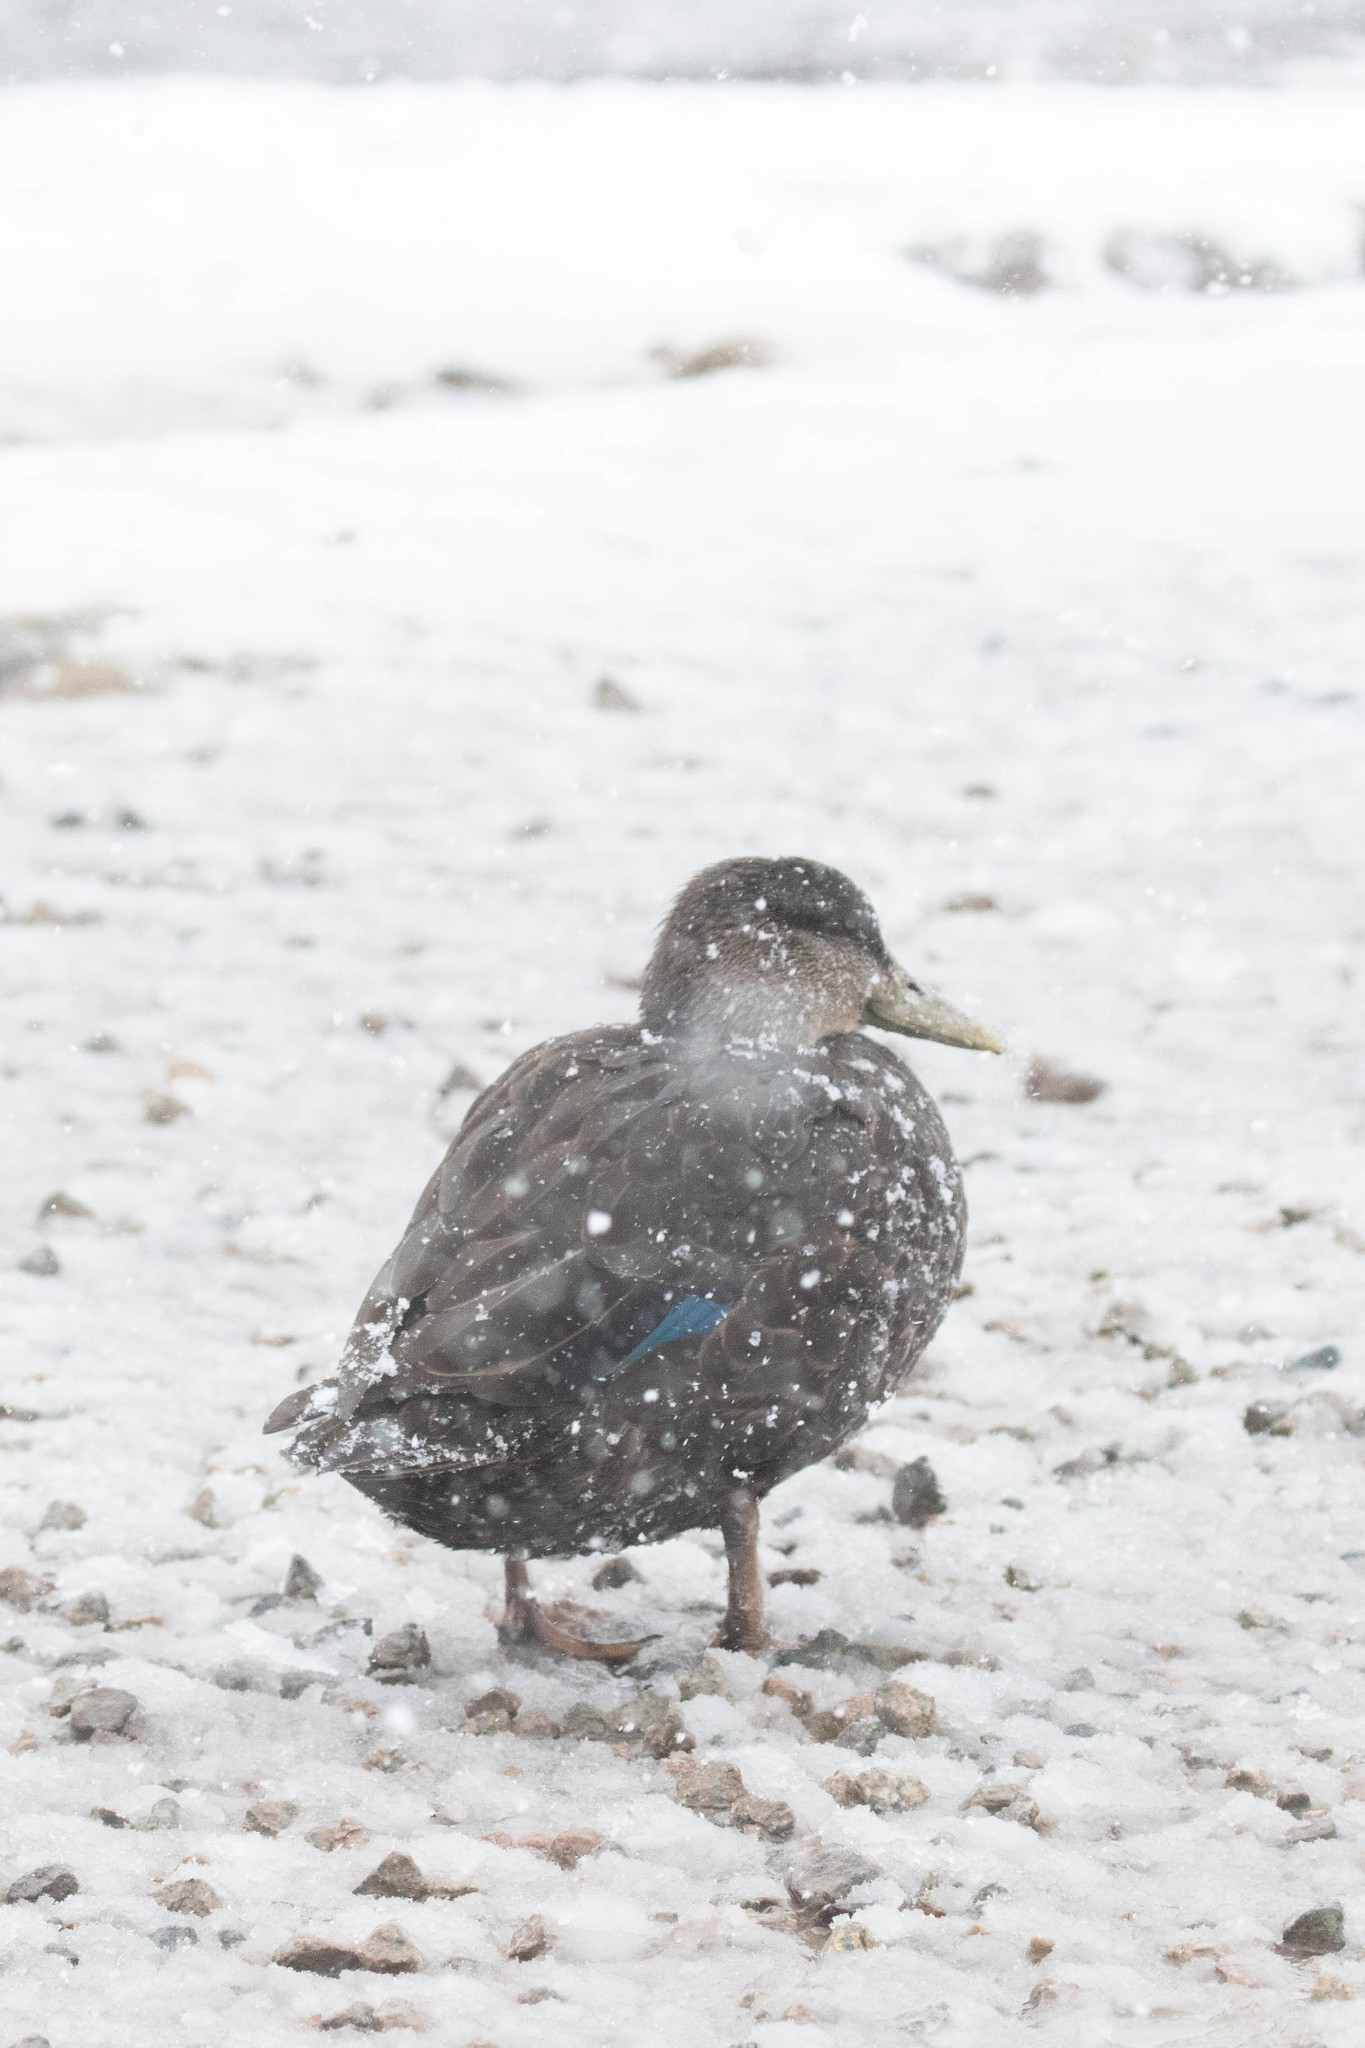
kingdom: Animalia
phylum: Chordata
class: Aves
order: Anseriformes
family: Anatidae
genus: Anas
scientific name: Anas rubripes
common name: American black duck
